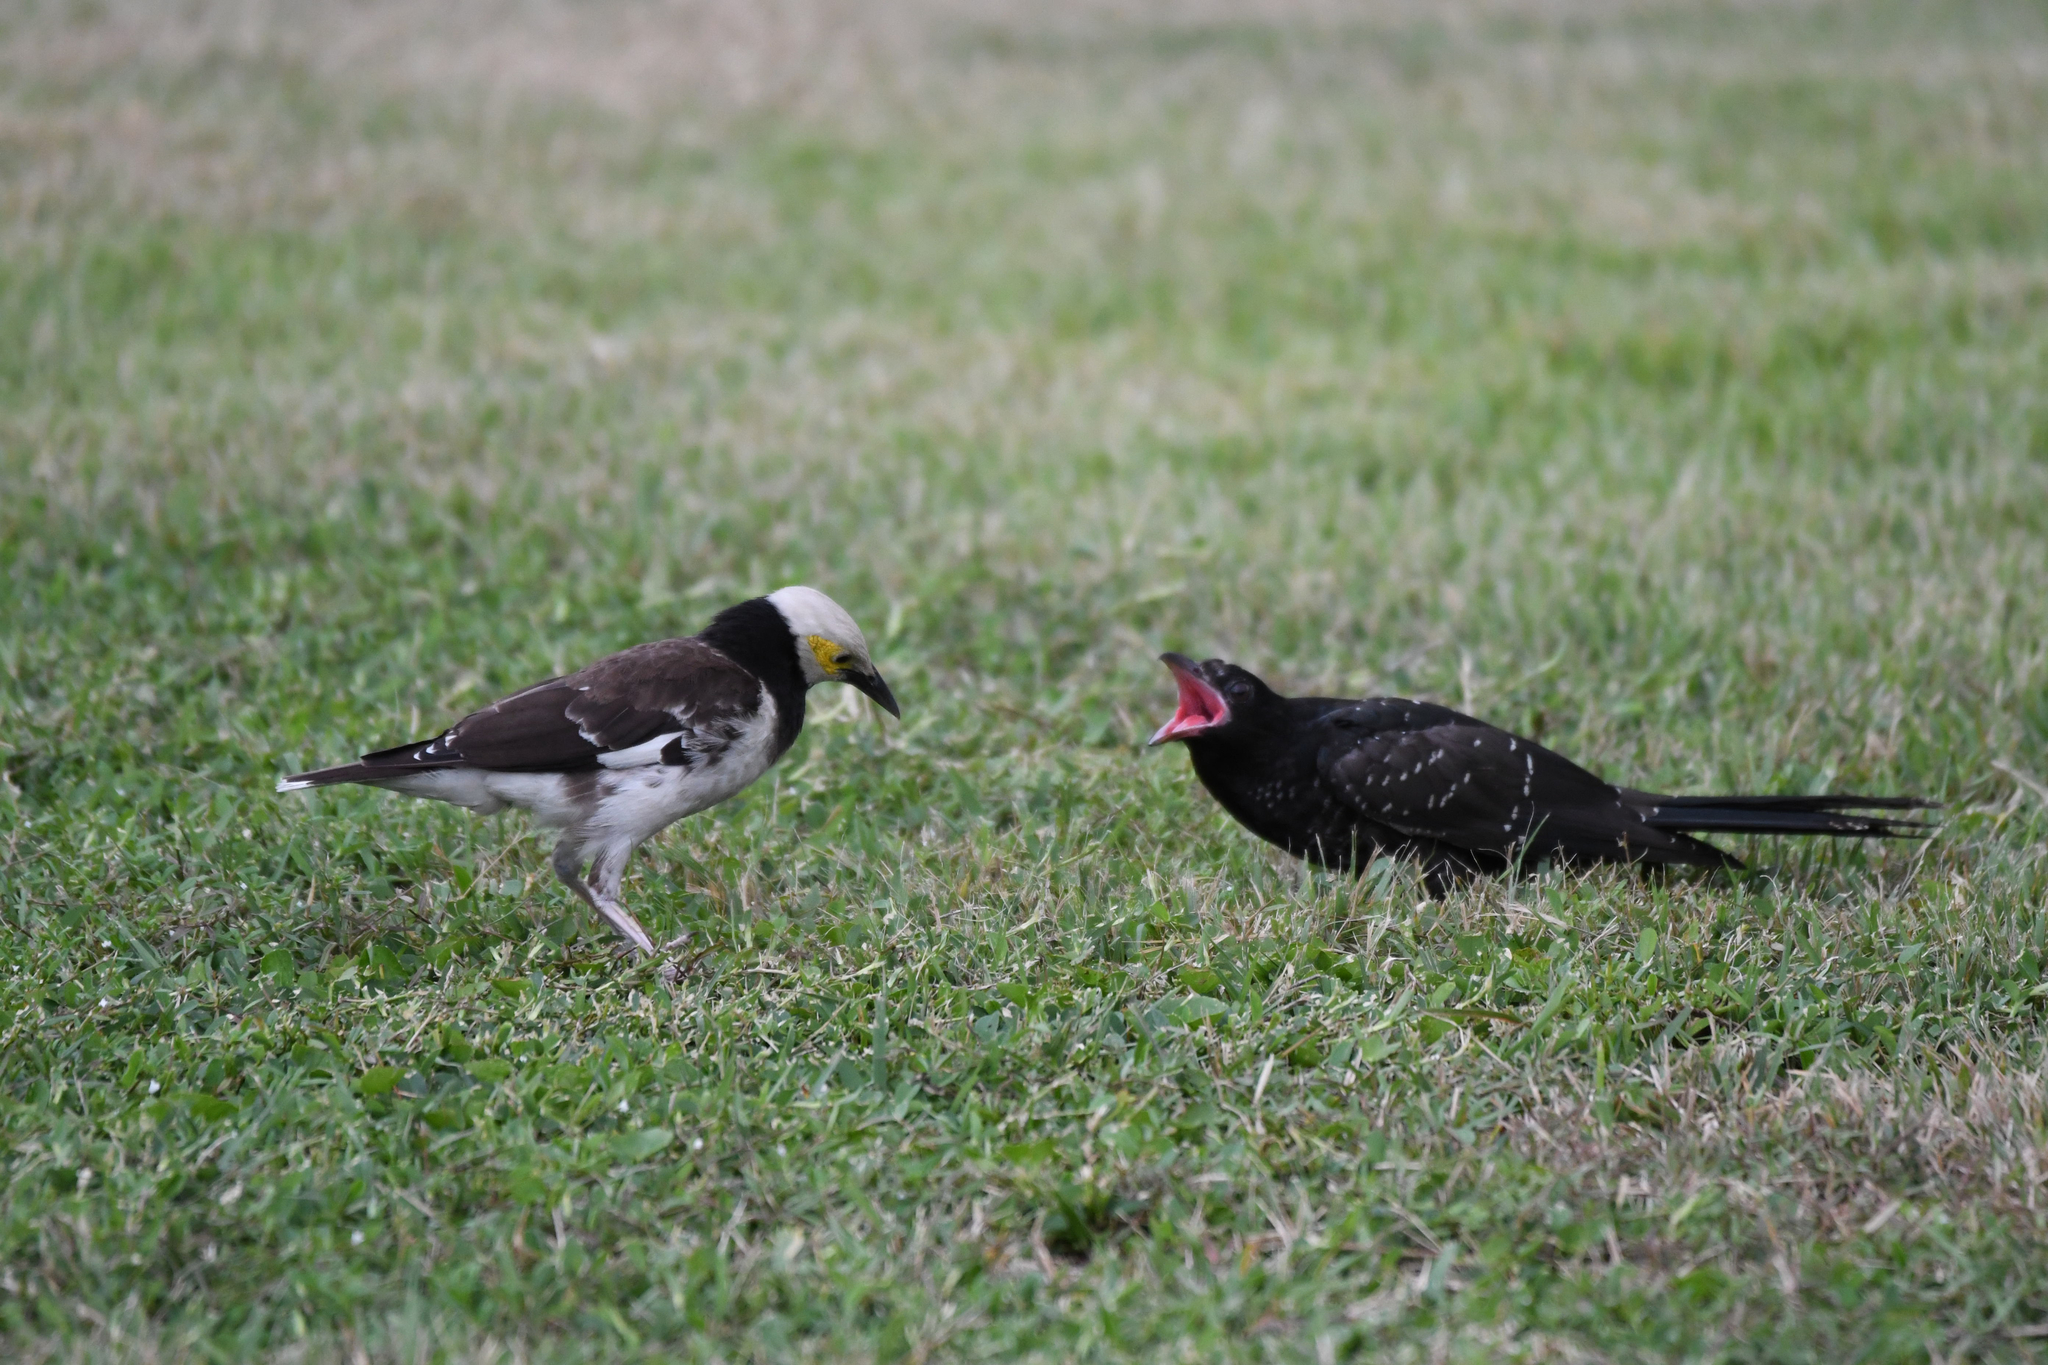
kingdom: Animalia
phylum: Chordata
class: Aves
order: Passeriformes
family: Sturnidae
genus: Gracupica
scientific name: Gracupica nigricollis
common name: Black-collared starling
